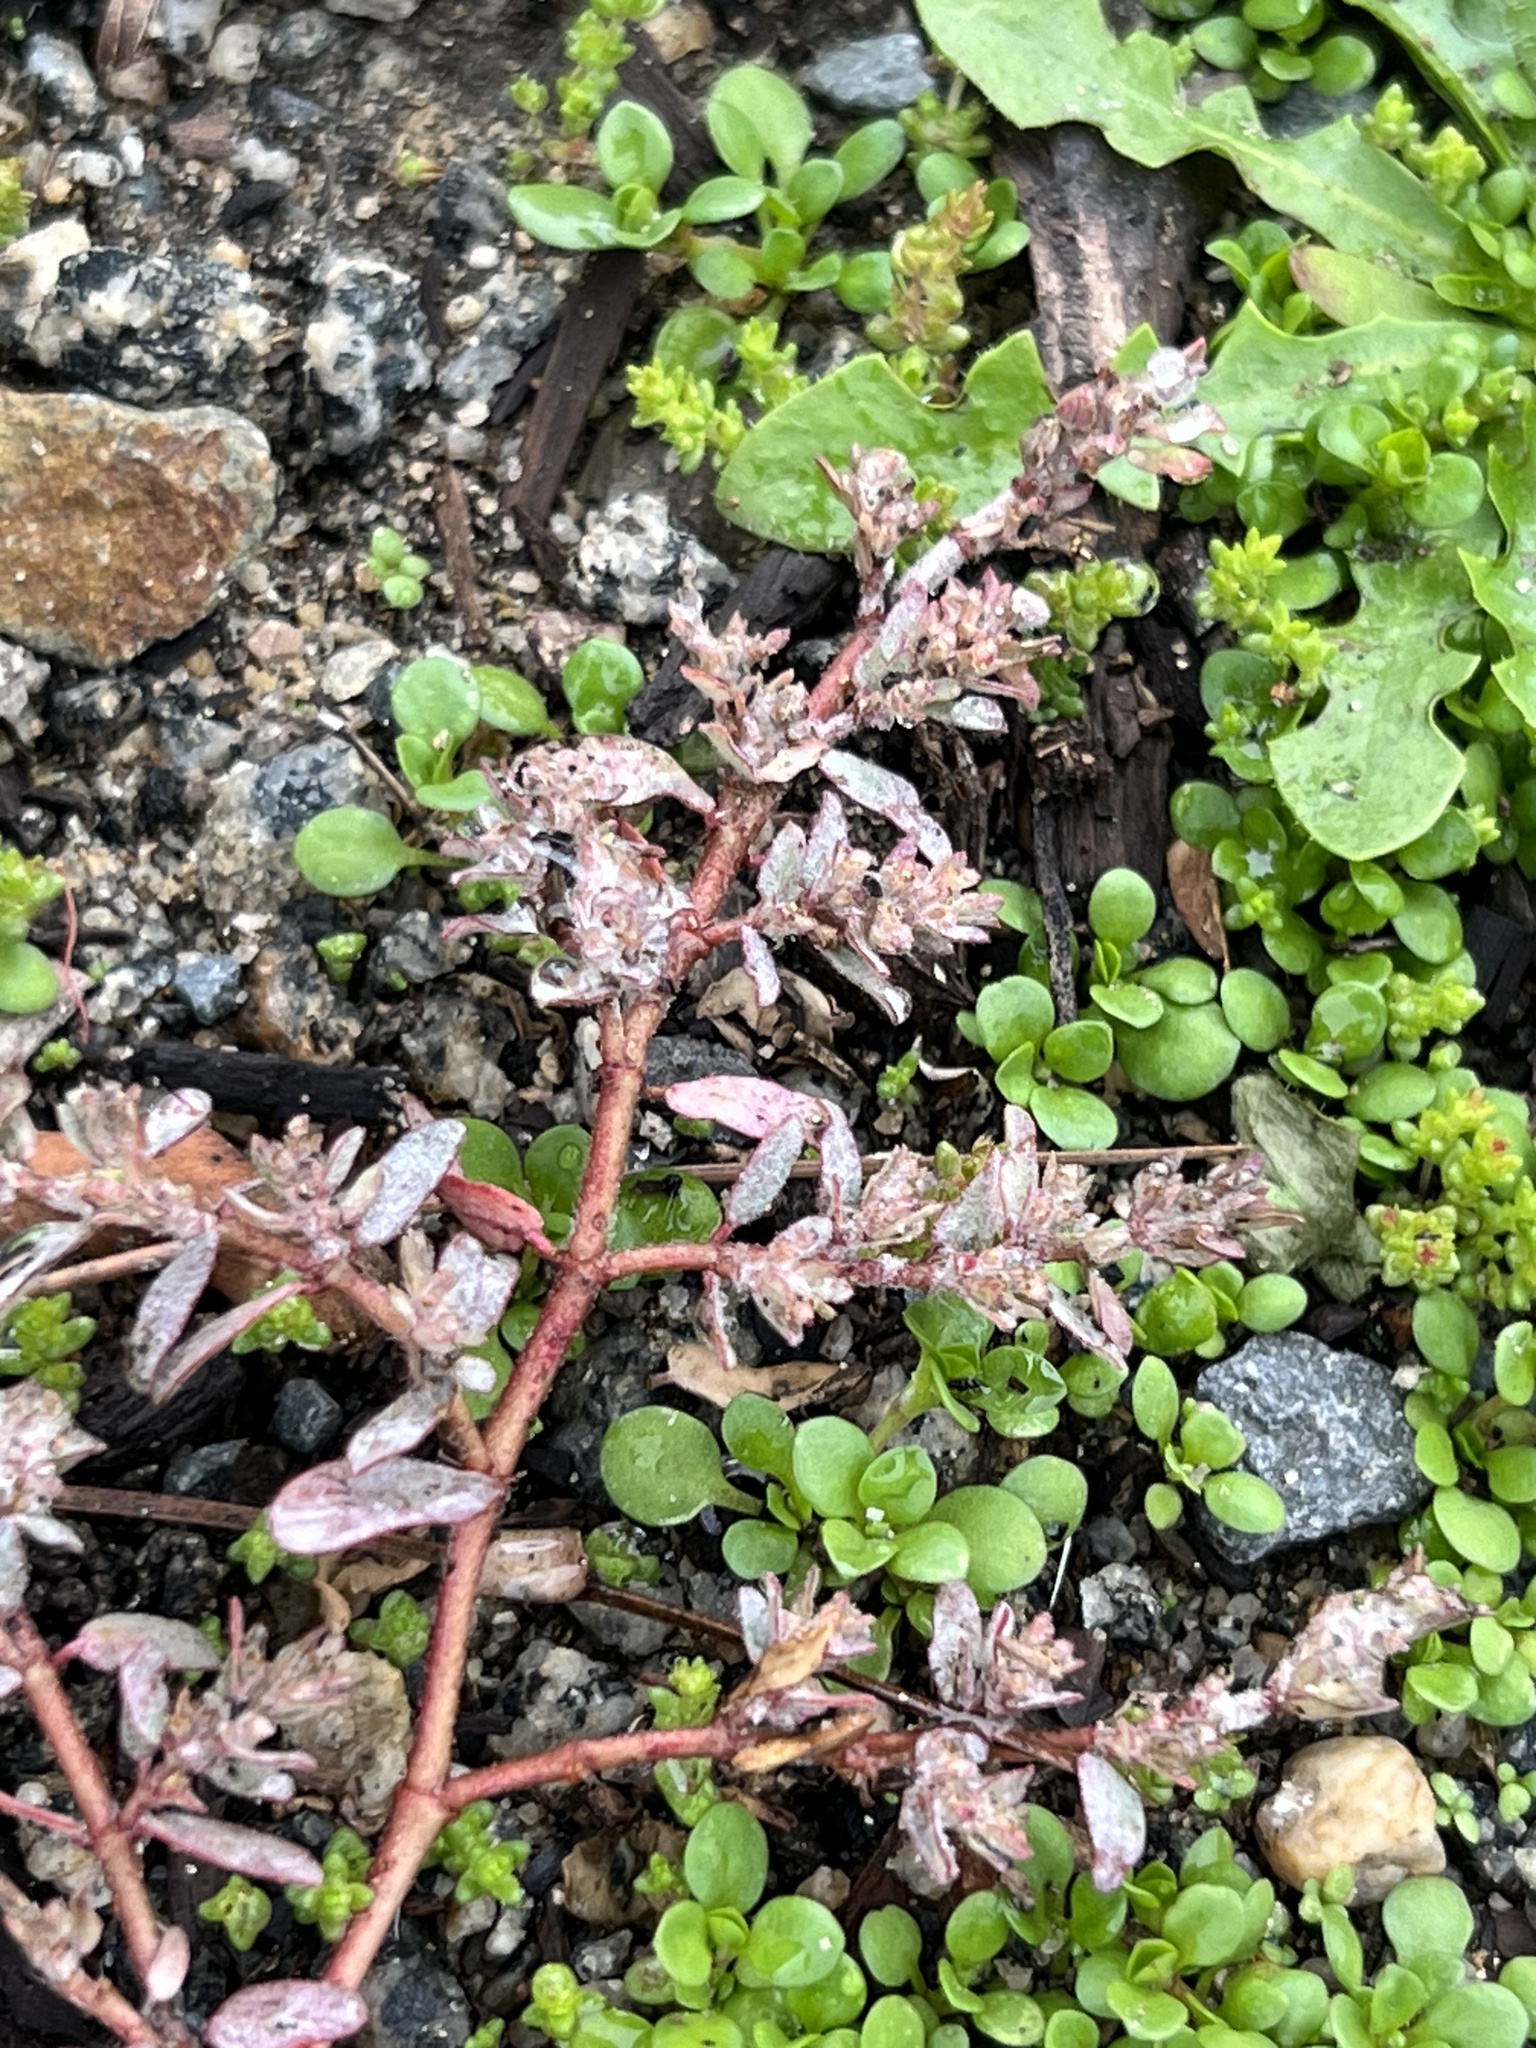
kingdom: Plantae
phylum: Tracheophyta
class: Magnoliopsida
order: Malpighiales
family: Euphorbiaceae
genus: Euphorbia
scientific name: Euphorbia maculata
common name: Spotted spurge
